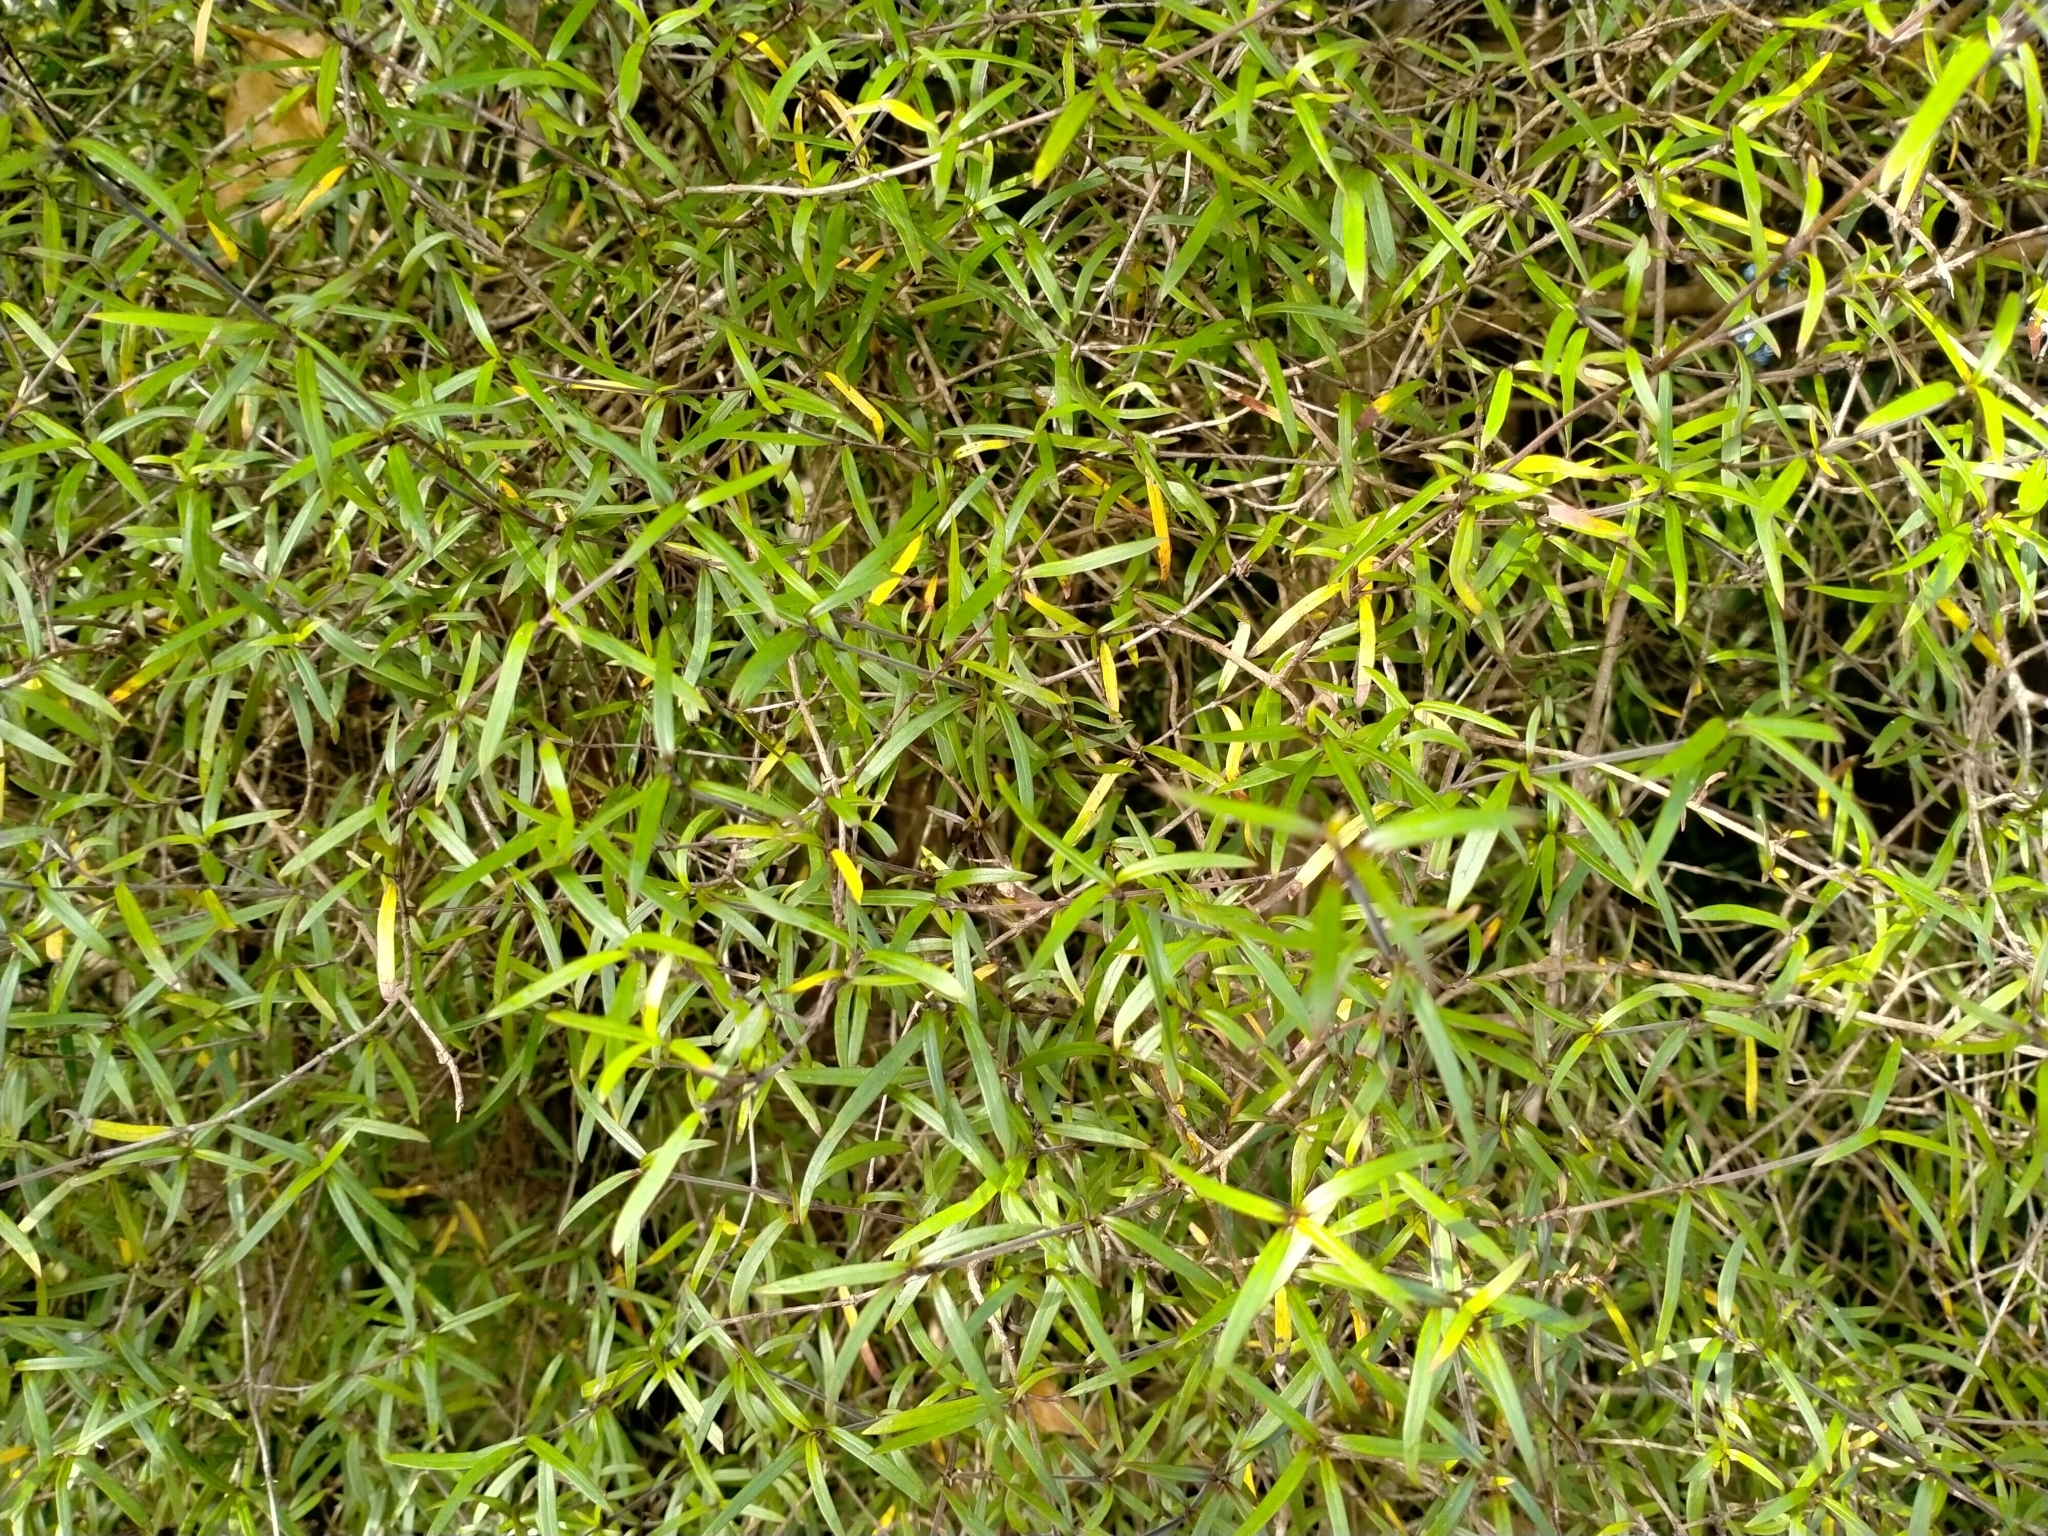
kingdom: Plantae
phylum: Tracheophyta
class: Magnoliopsida
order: Gentianales
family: Rubiaceae
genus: Coprosma
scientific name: Coprosma linariifolia
